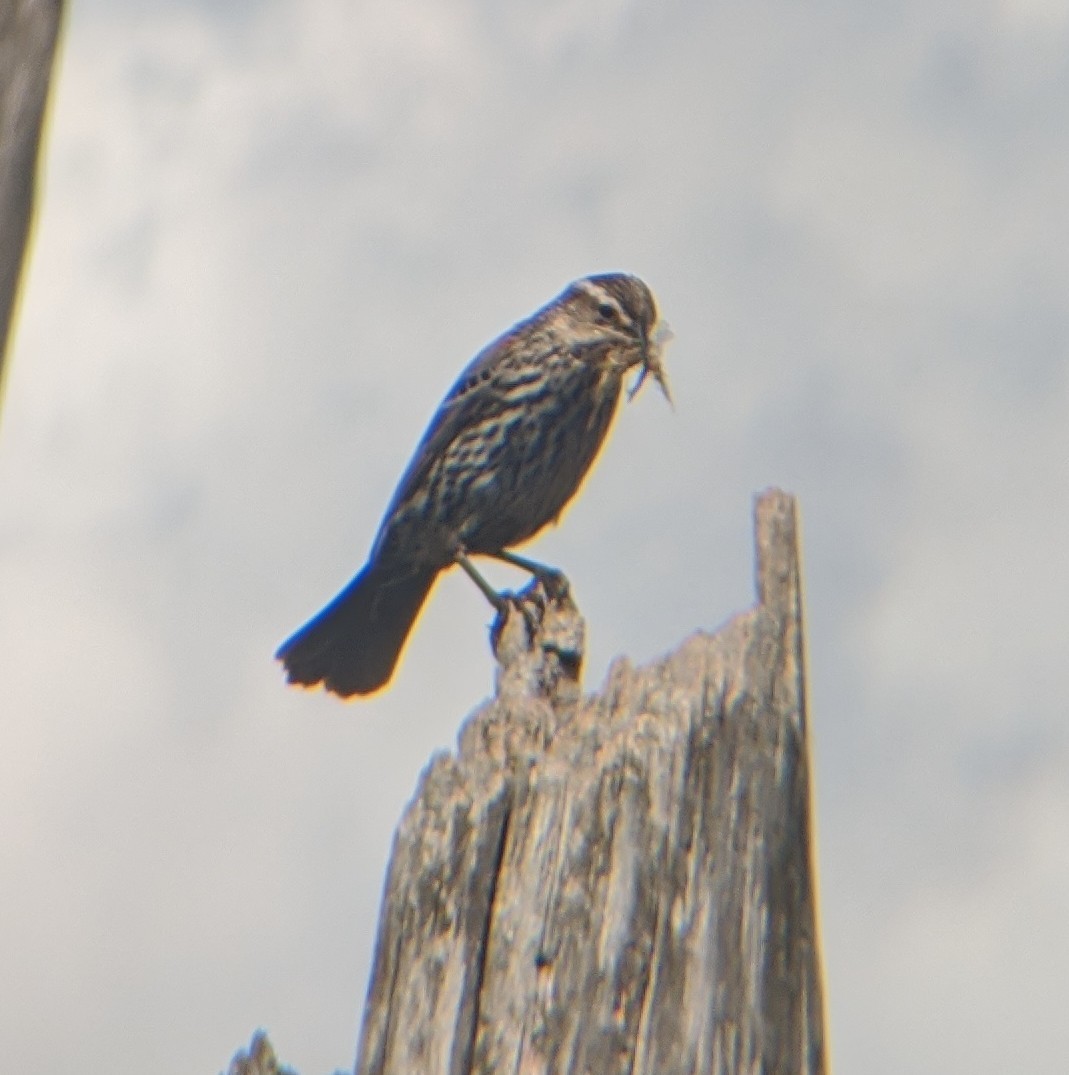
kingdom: Animalia
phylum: Chordata
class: Aves
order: Passeriformes
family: Icteridae
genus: Agelaius
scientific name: Agelaius phoeniceus
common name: Red-winged blackbird
